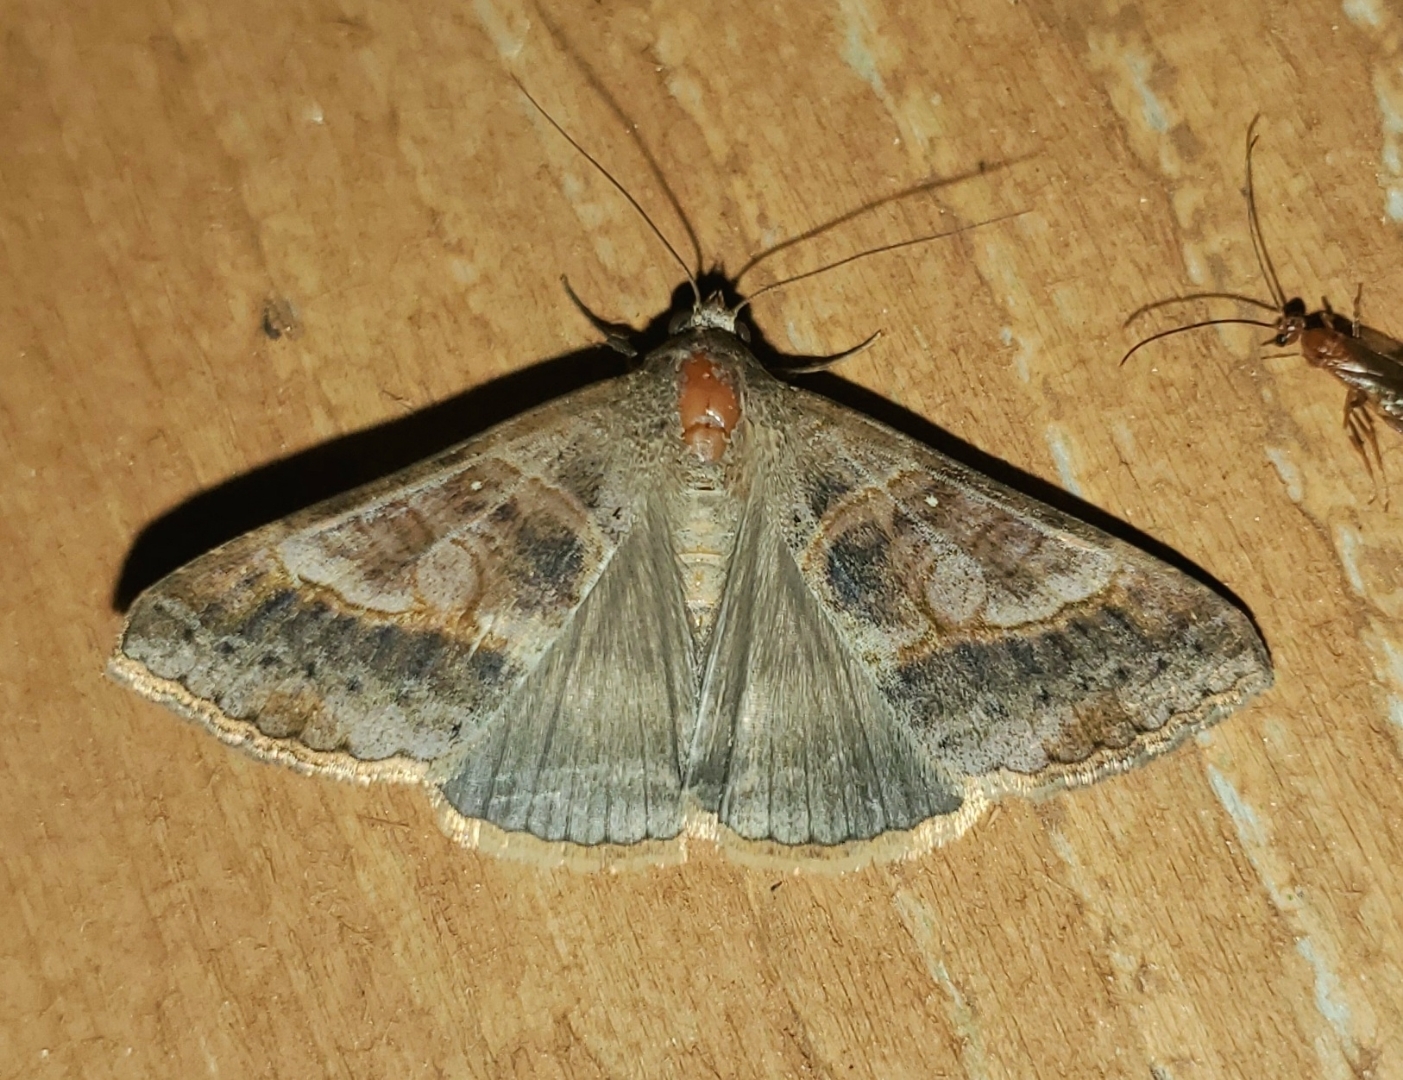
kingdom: Animalia
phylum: Arthropoda
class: Insecta
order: Lepidoptera
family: Erebidae
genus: Mocis
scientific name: Mocis latipes
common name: Striped grass looper
